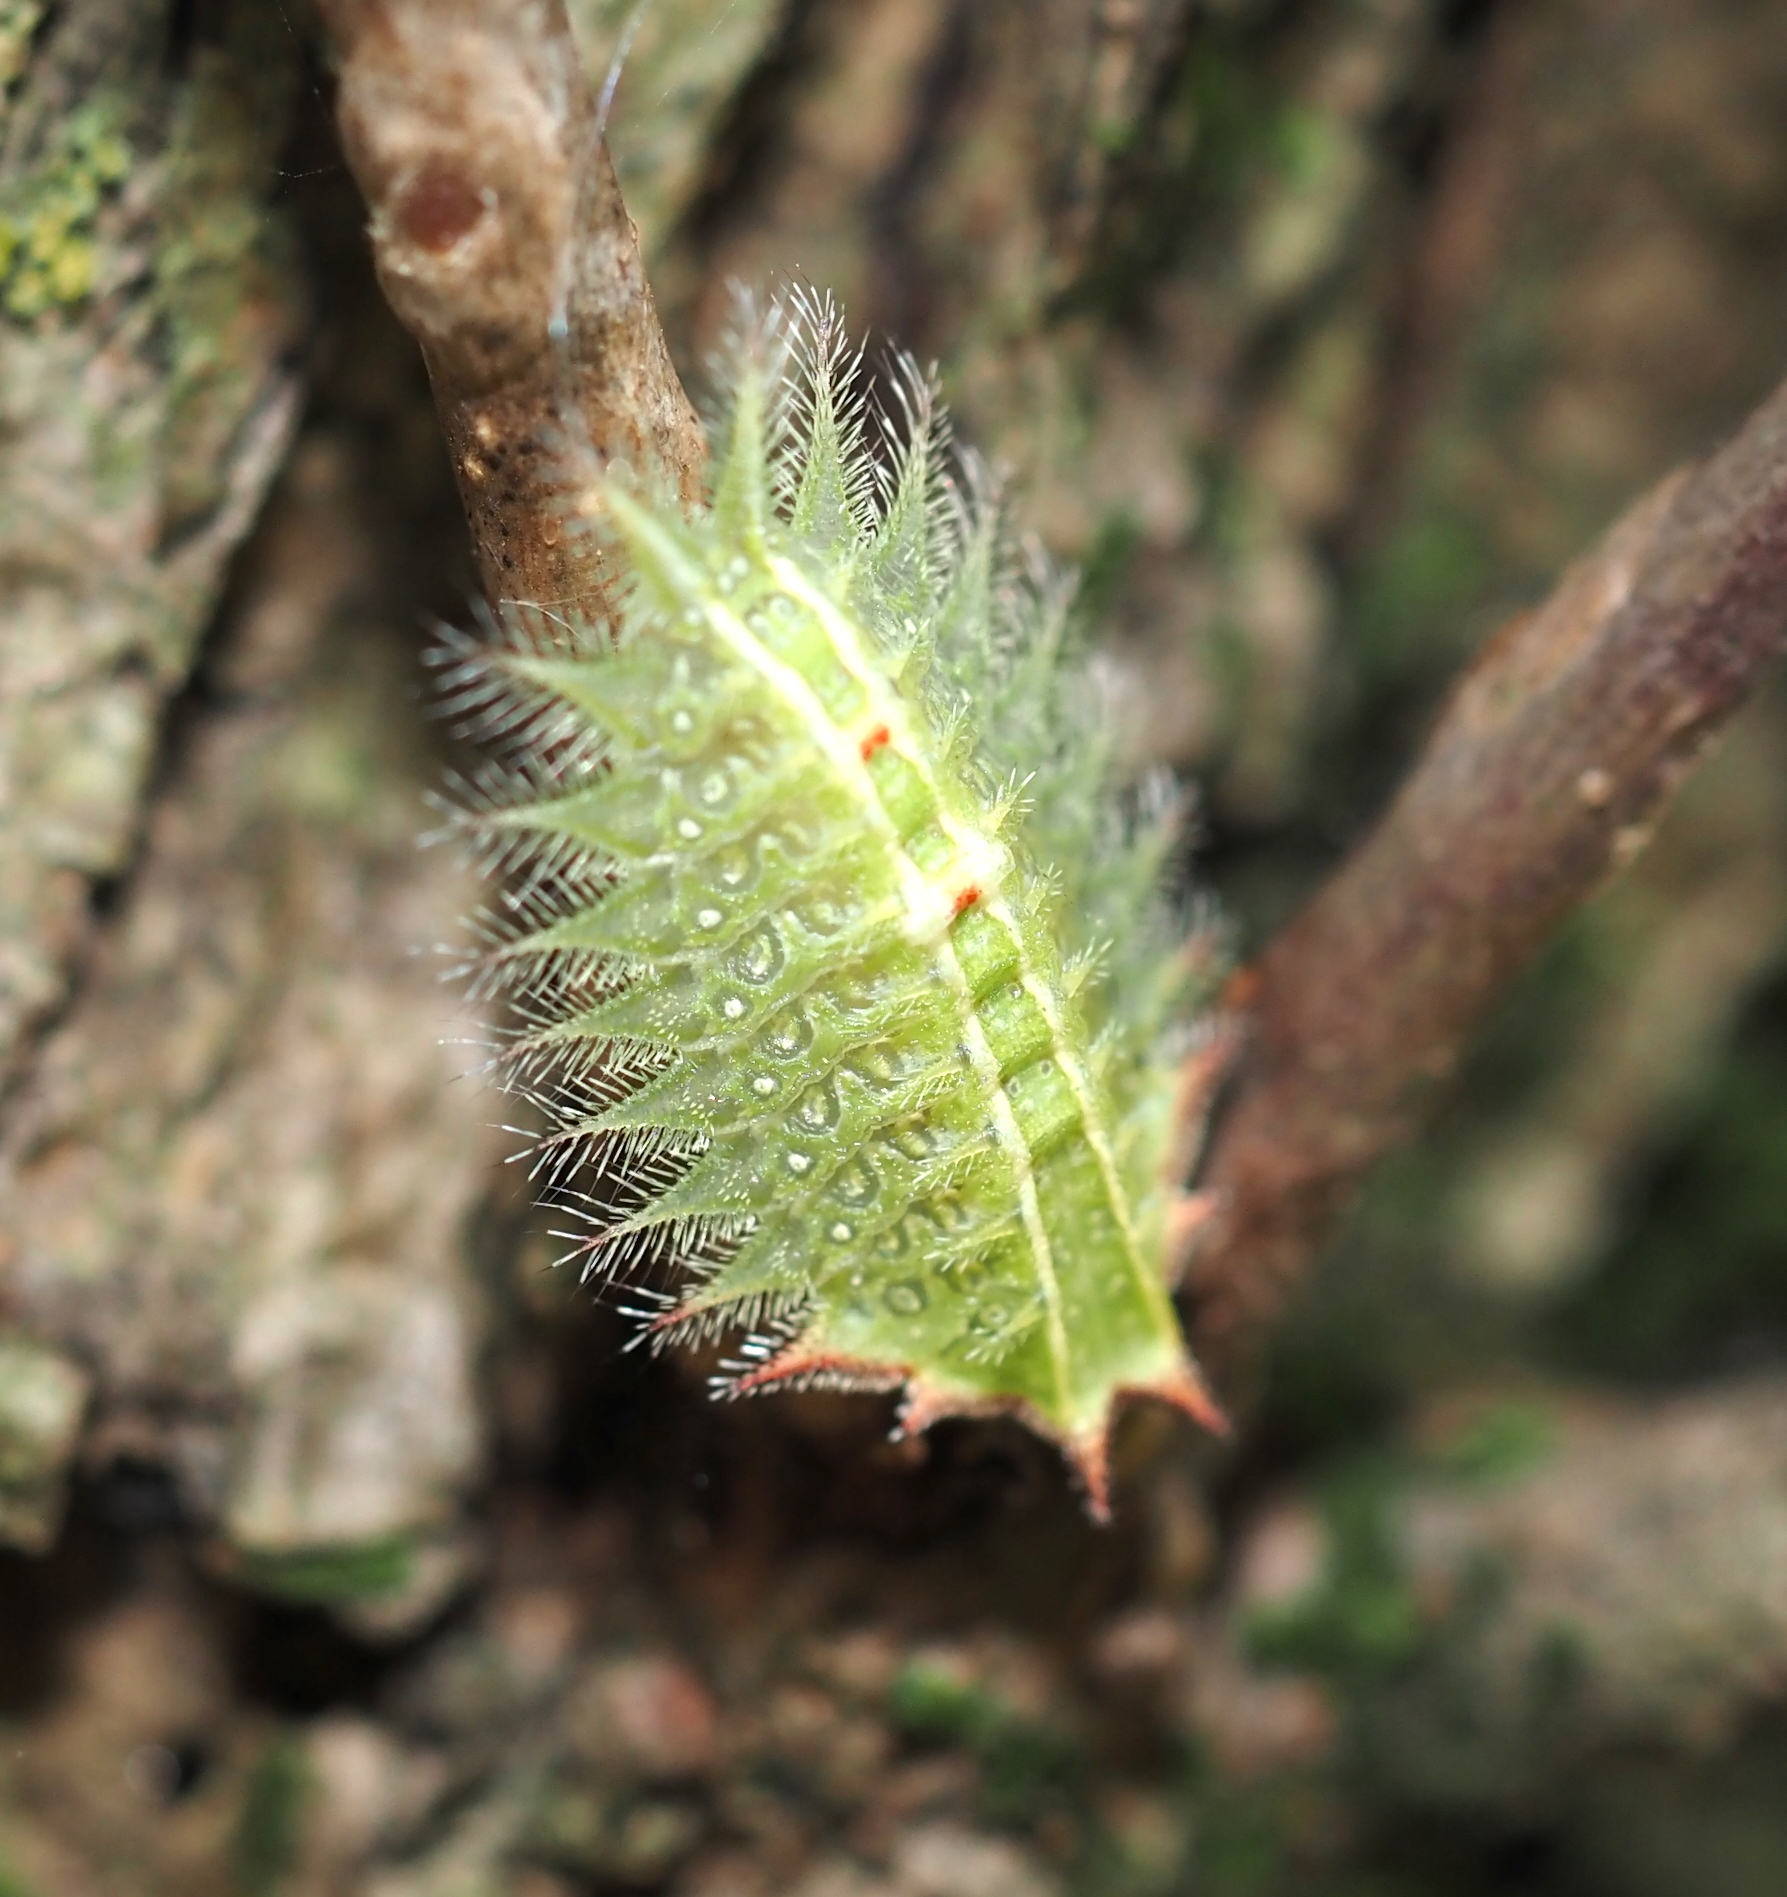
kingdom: Animalia
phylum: Arthropoda
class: Insecta
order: Lepidoptera
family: Limacodidae
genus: Isa
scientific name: Isa textula
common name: Crowned slug moth
